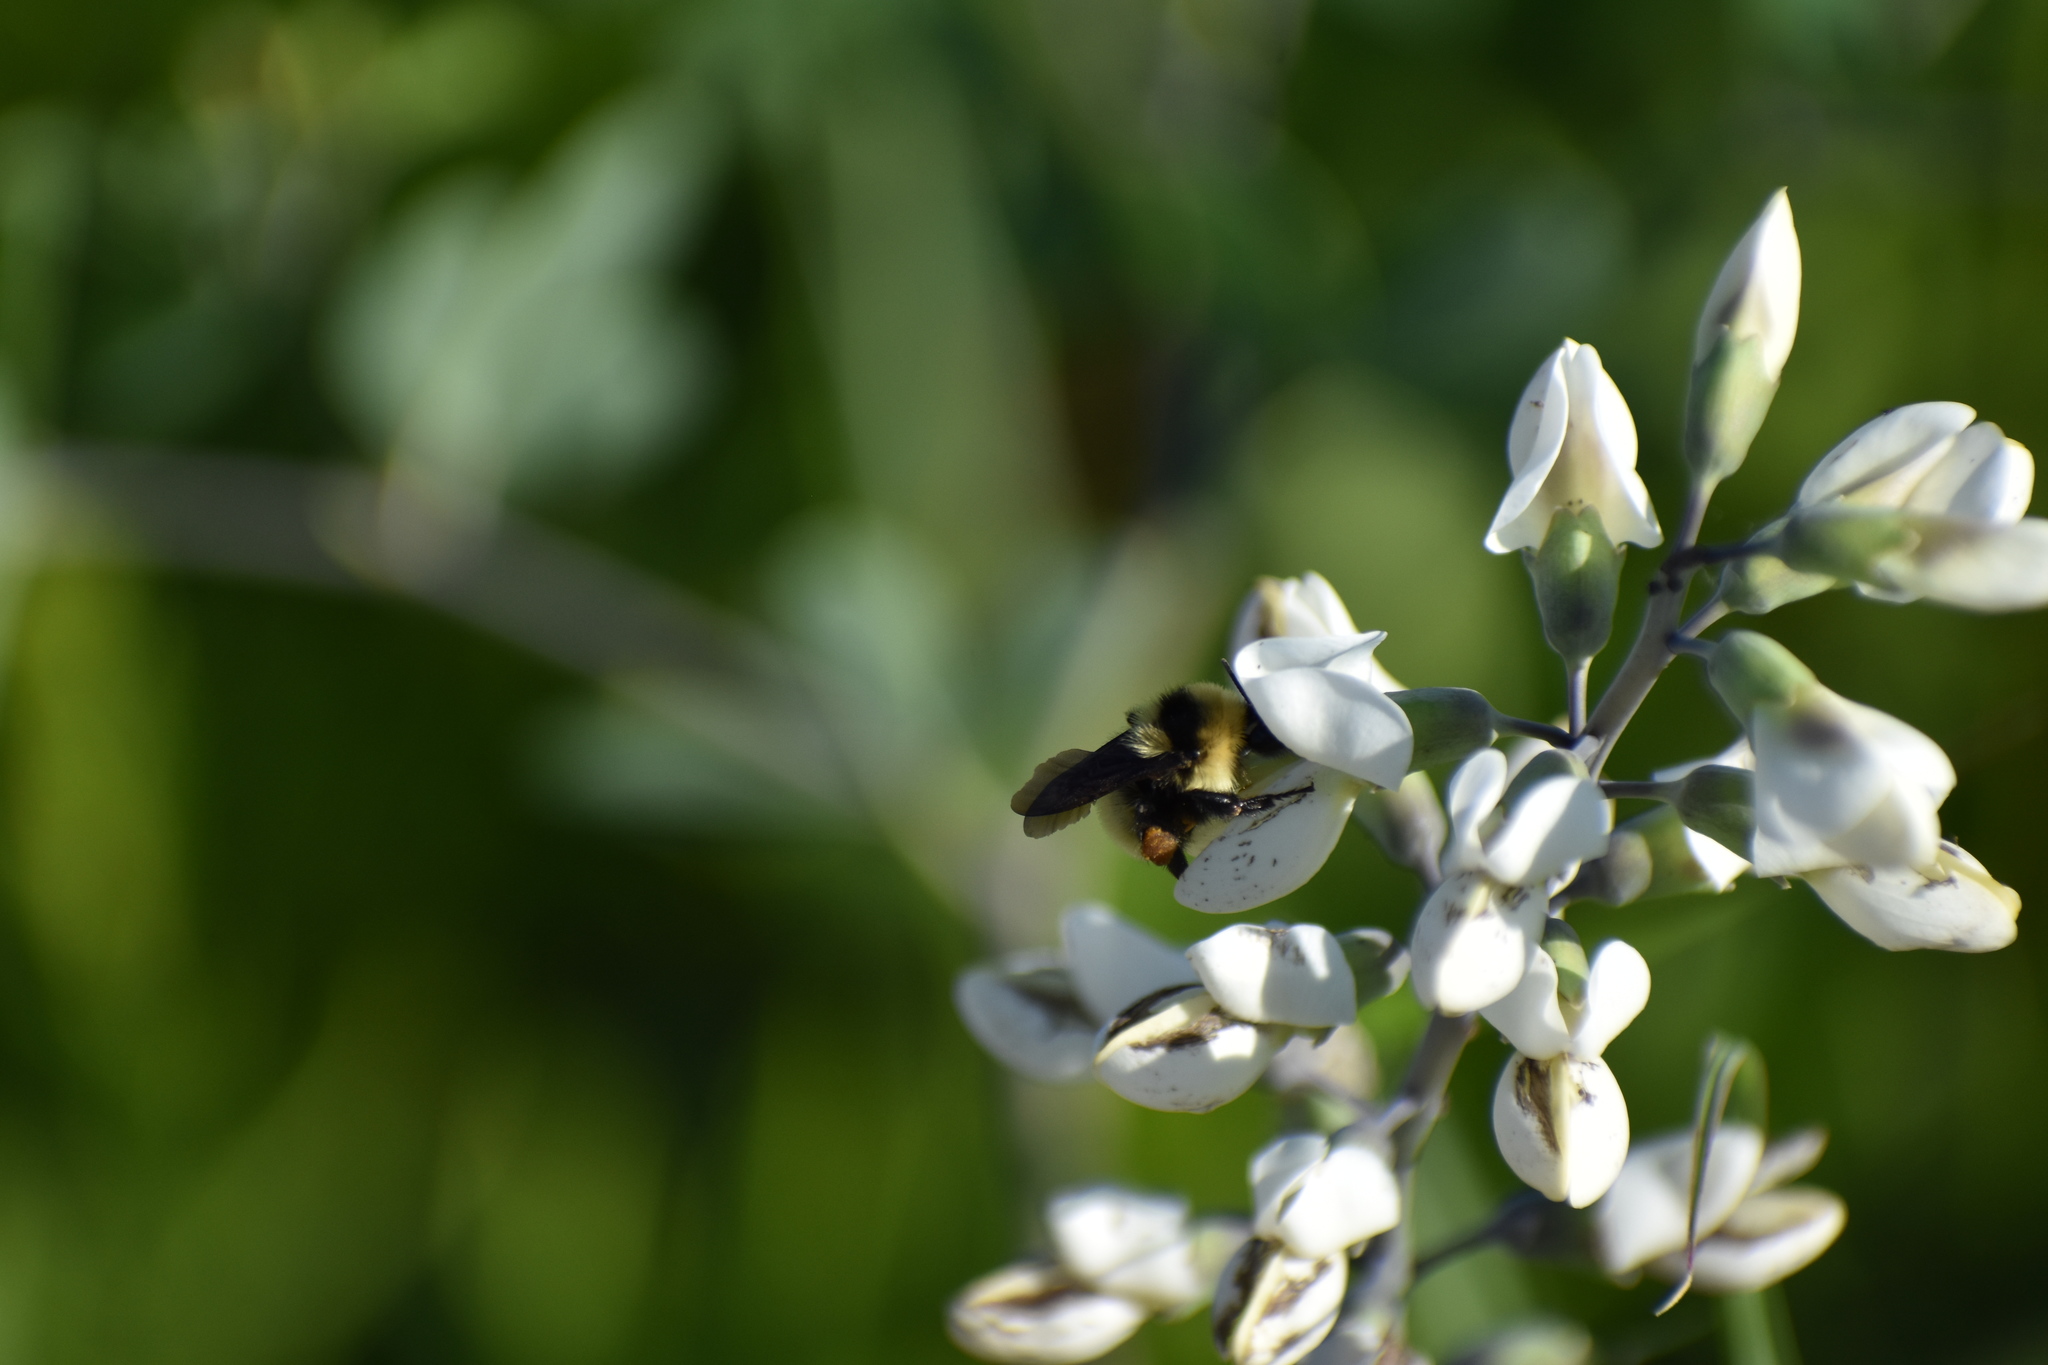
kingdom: Animalia
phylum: Arthropoda
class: Insecta
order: Hymenoptera
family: Apidae
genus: Bombus
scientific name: Bombus fervidus
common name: Yellow bumble bee
